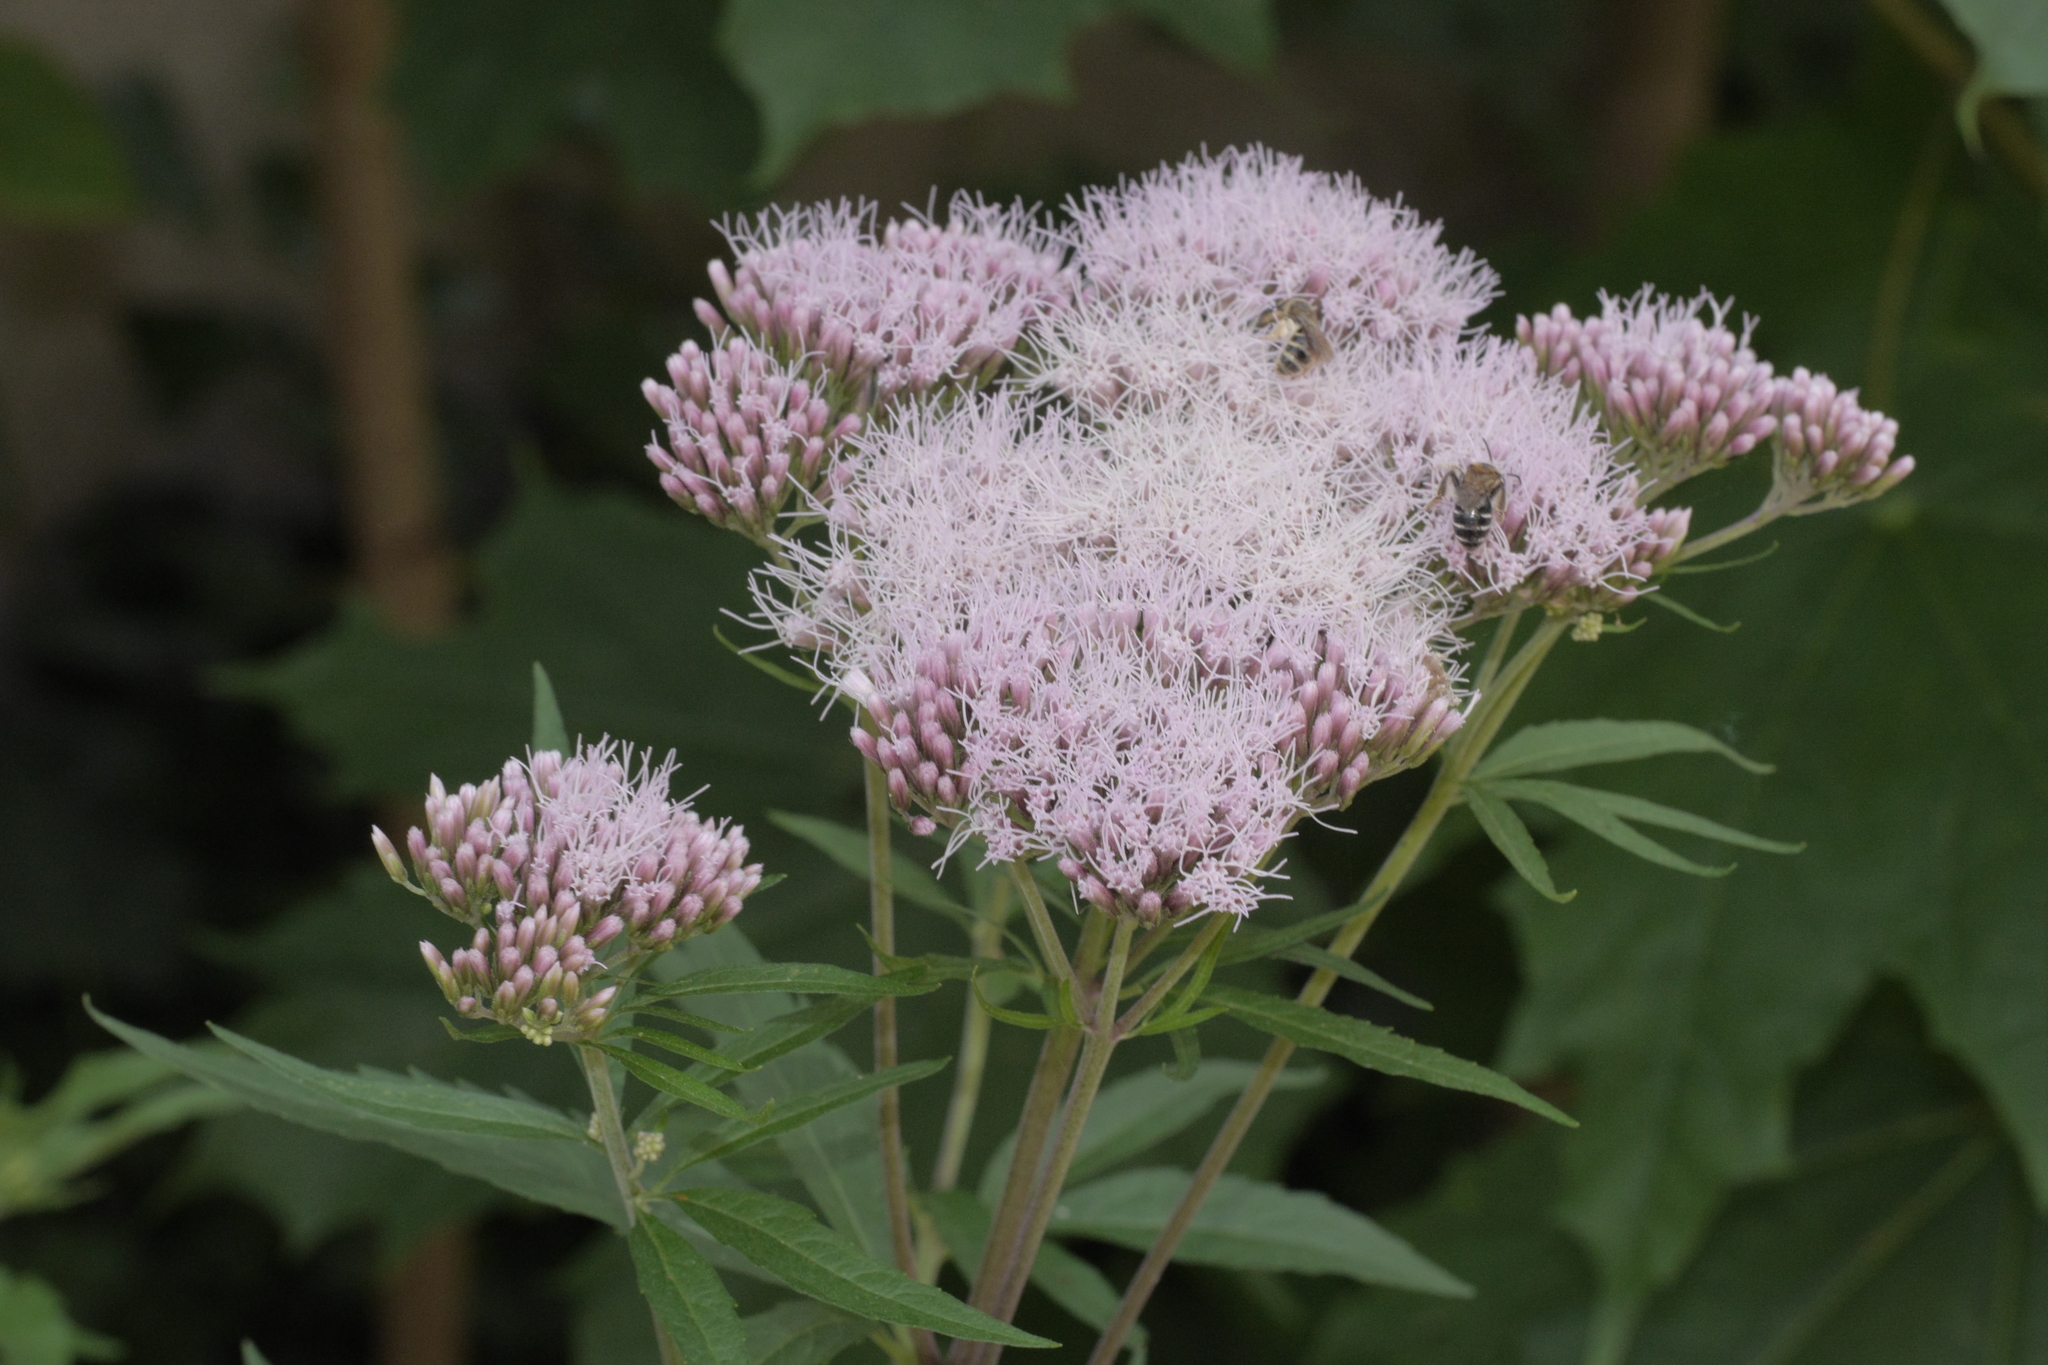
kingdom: Plantae
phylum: Tracheophyta
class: Magnoliopsida
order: Asterales
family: Asteraceae
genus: Eupatorium
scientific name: Eupatorium cannabinum
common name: Hemp-agrimony
